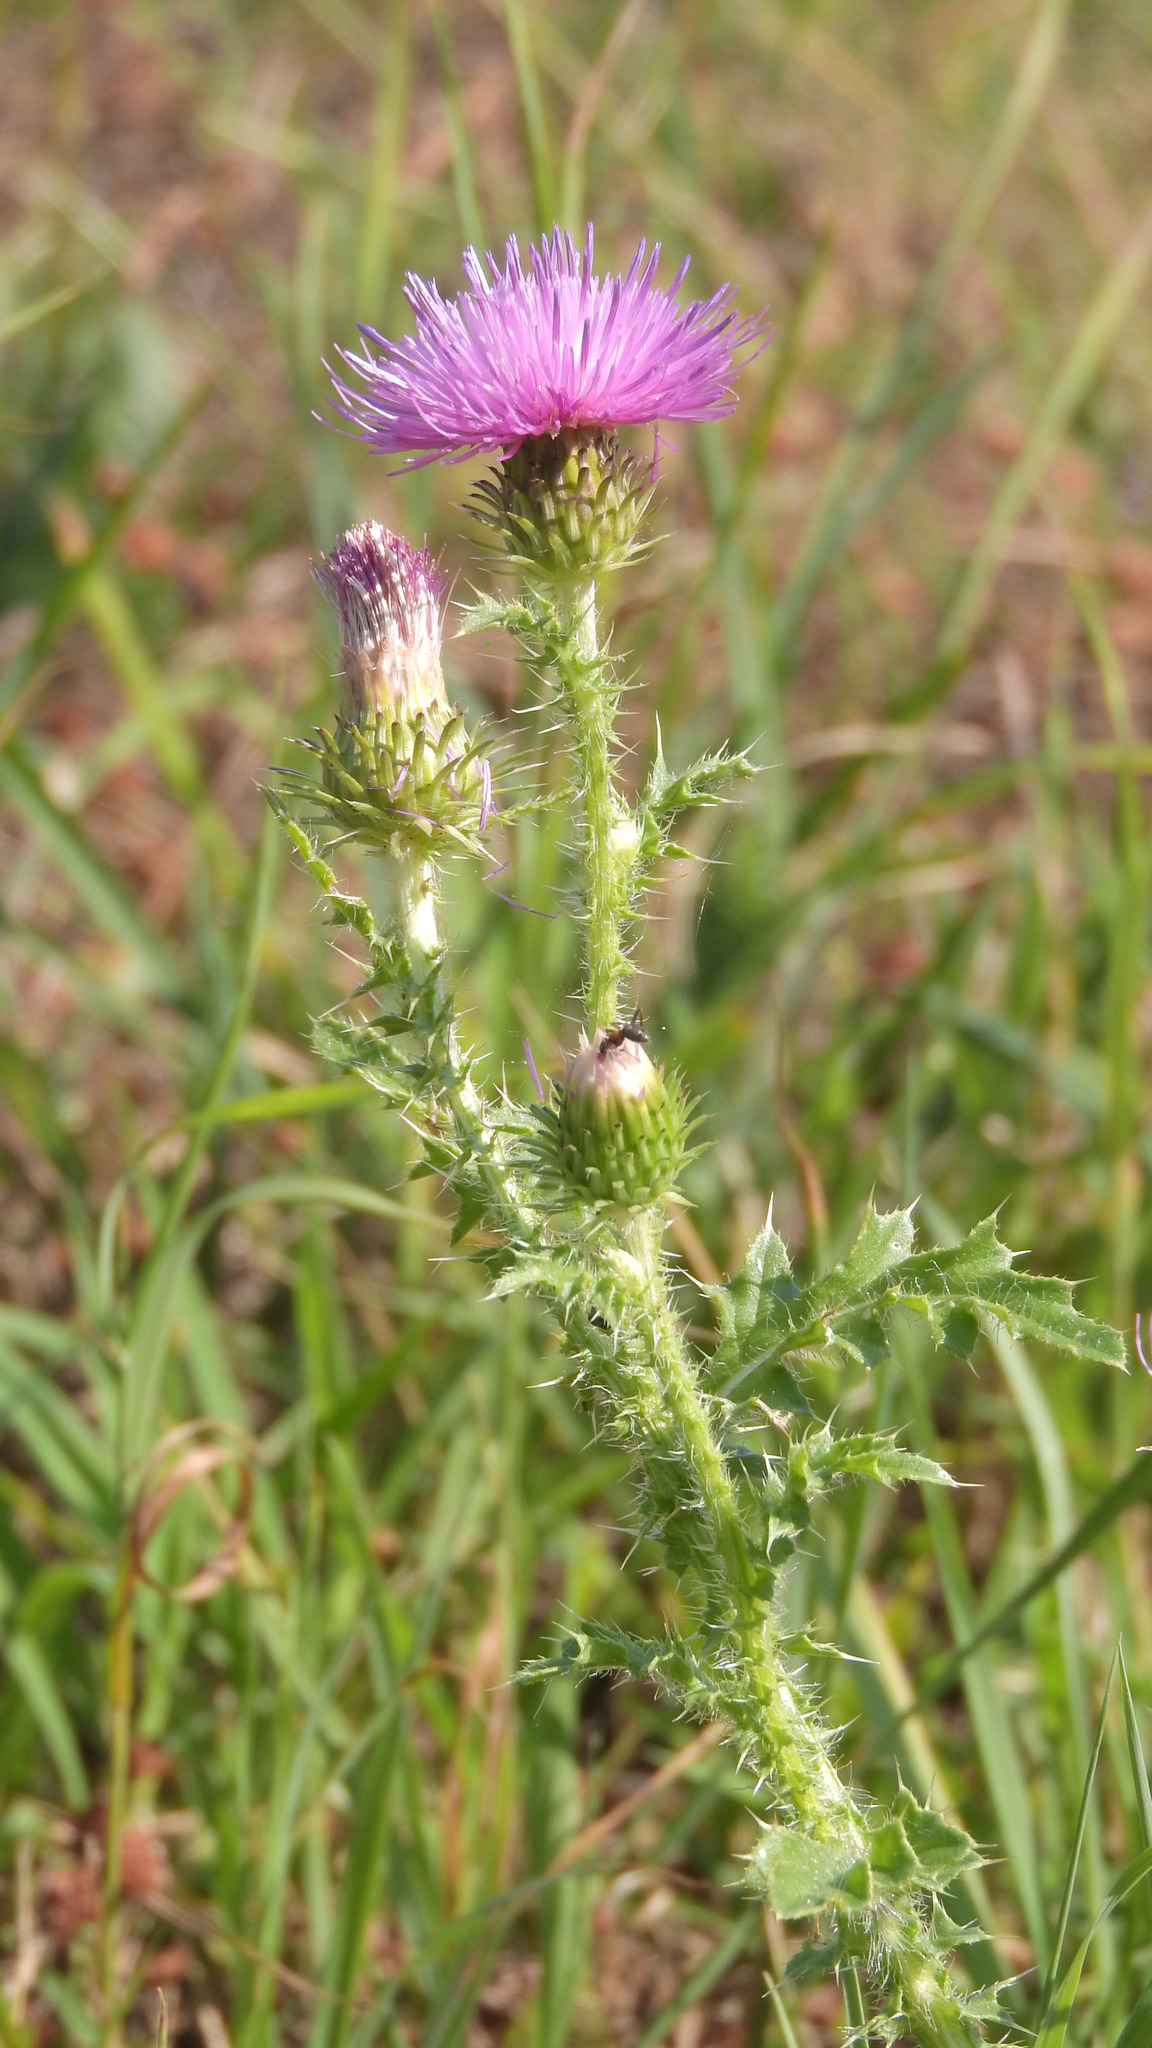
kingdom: Plantae
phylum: Tracheophyta
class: Magnoliopsida
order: Asterales
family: Asteraceae
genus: Carduus
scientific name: Carduus acanthoides
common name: Plumeless thistle
